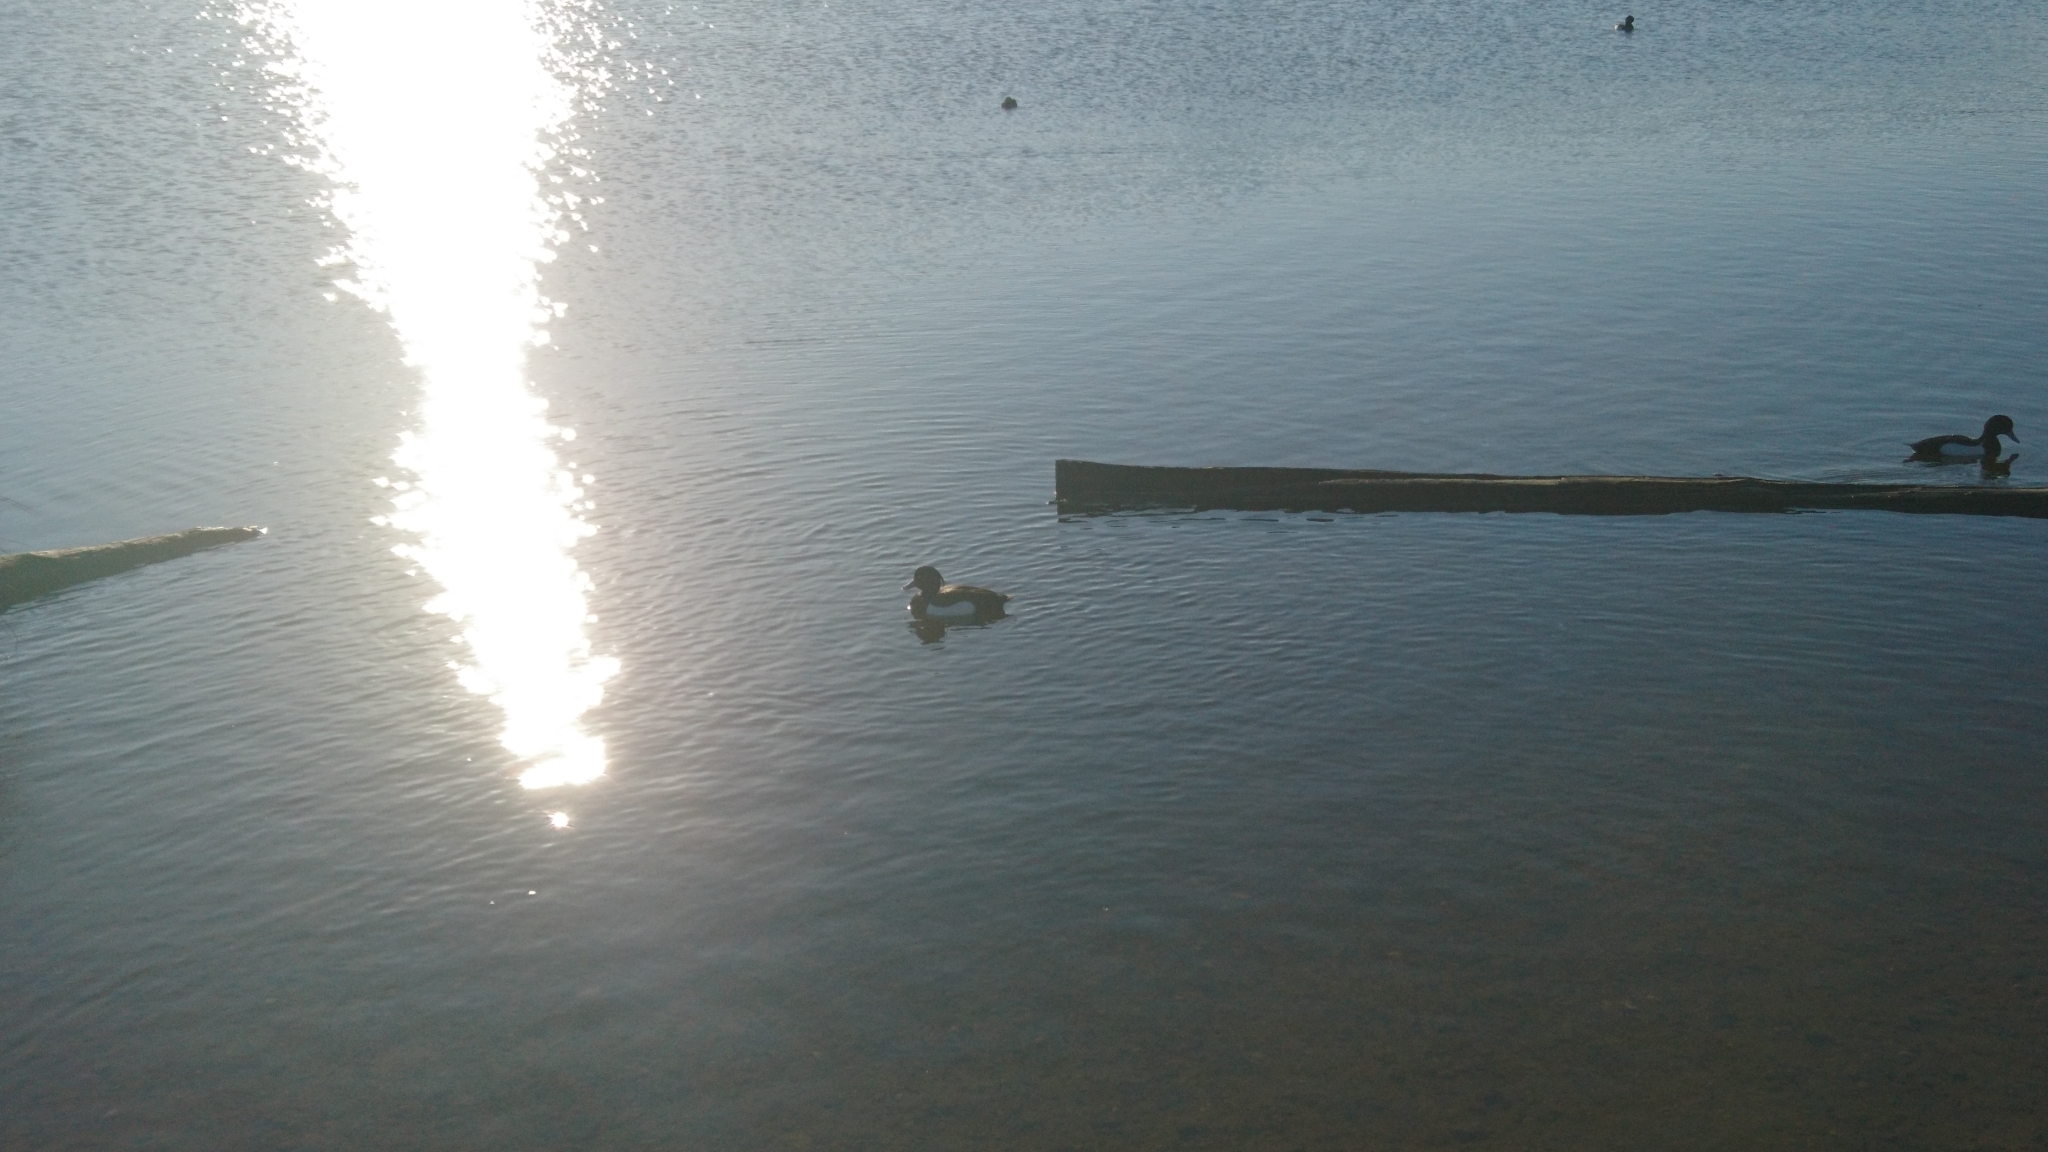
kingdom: Animalia
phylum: Chordata
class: Aves
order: Anseriformes
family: Anatidae
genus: Aythya
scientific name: Aythya fuligula
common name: Tufted duck
